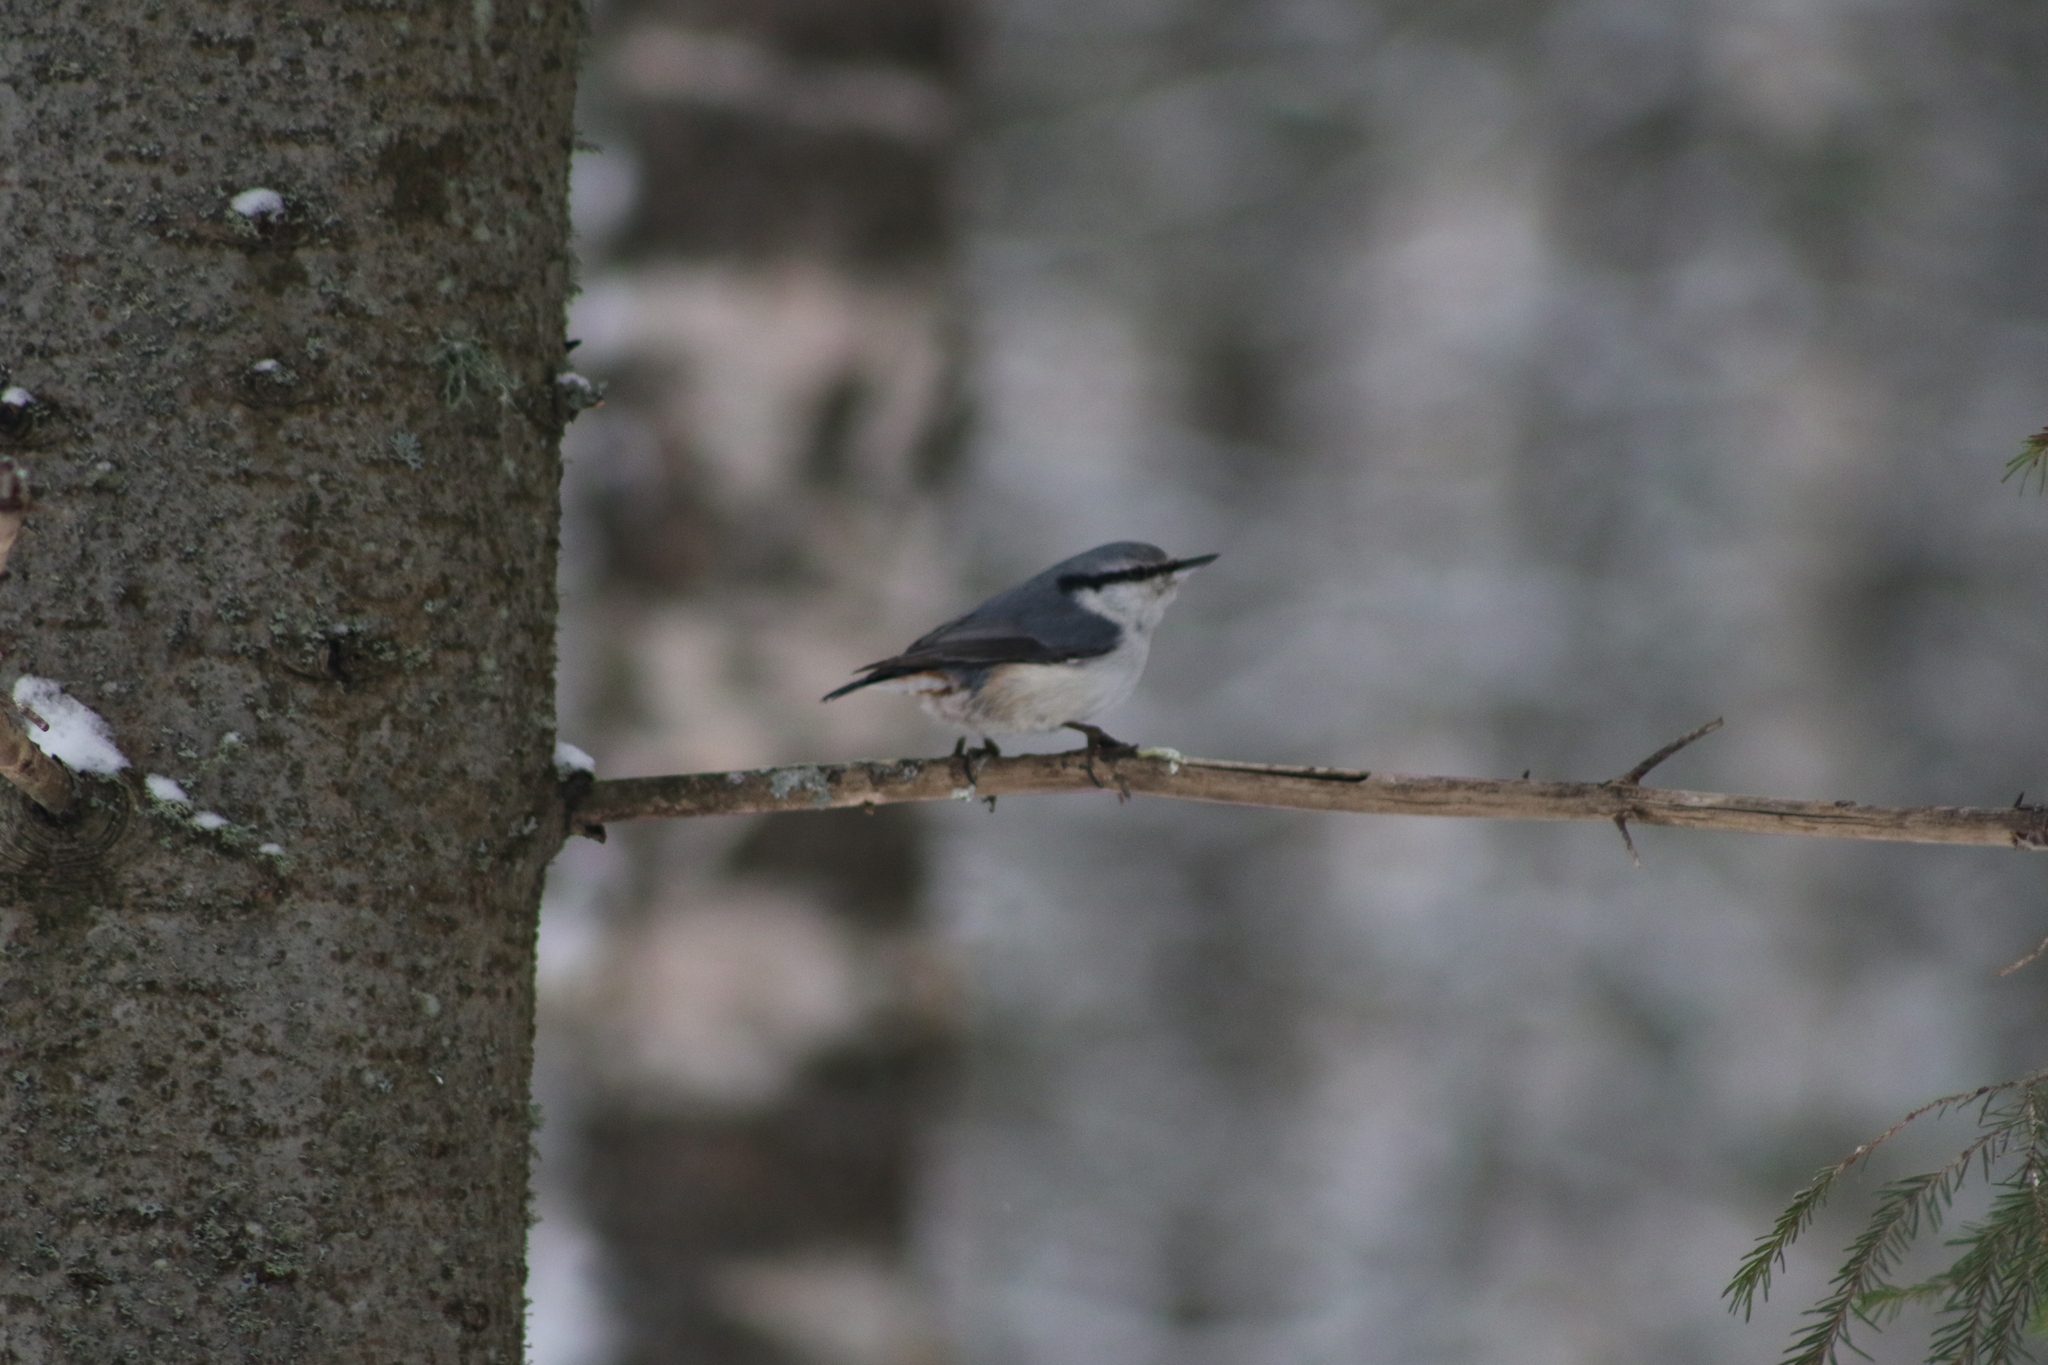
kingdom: Animalia
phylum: Chordata
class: Aves
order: Passeriformes
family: Sittidae
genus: Sitta
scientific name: Sitta europaea
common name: Eurasian nuthatch
